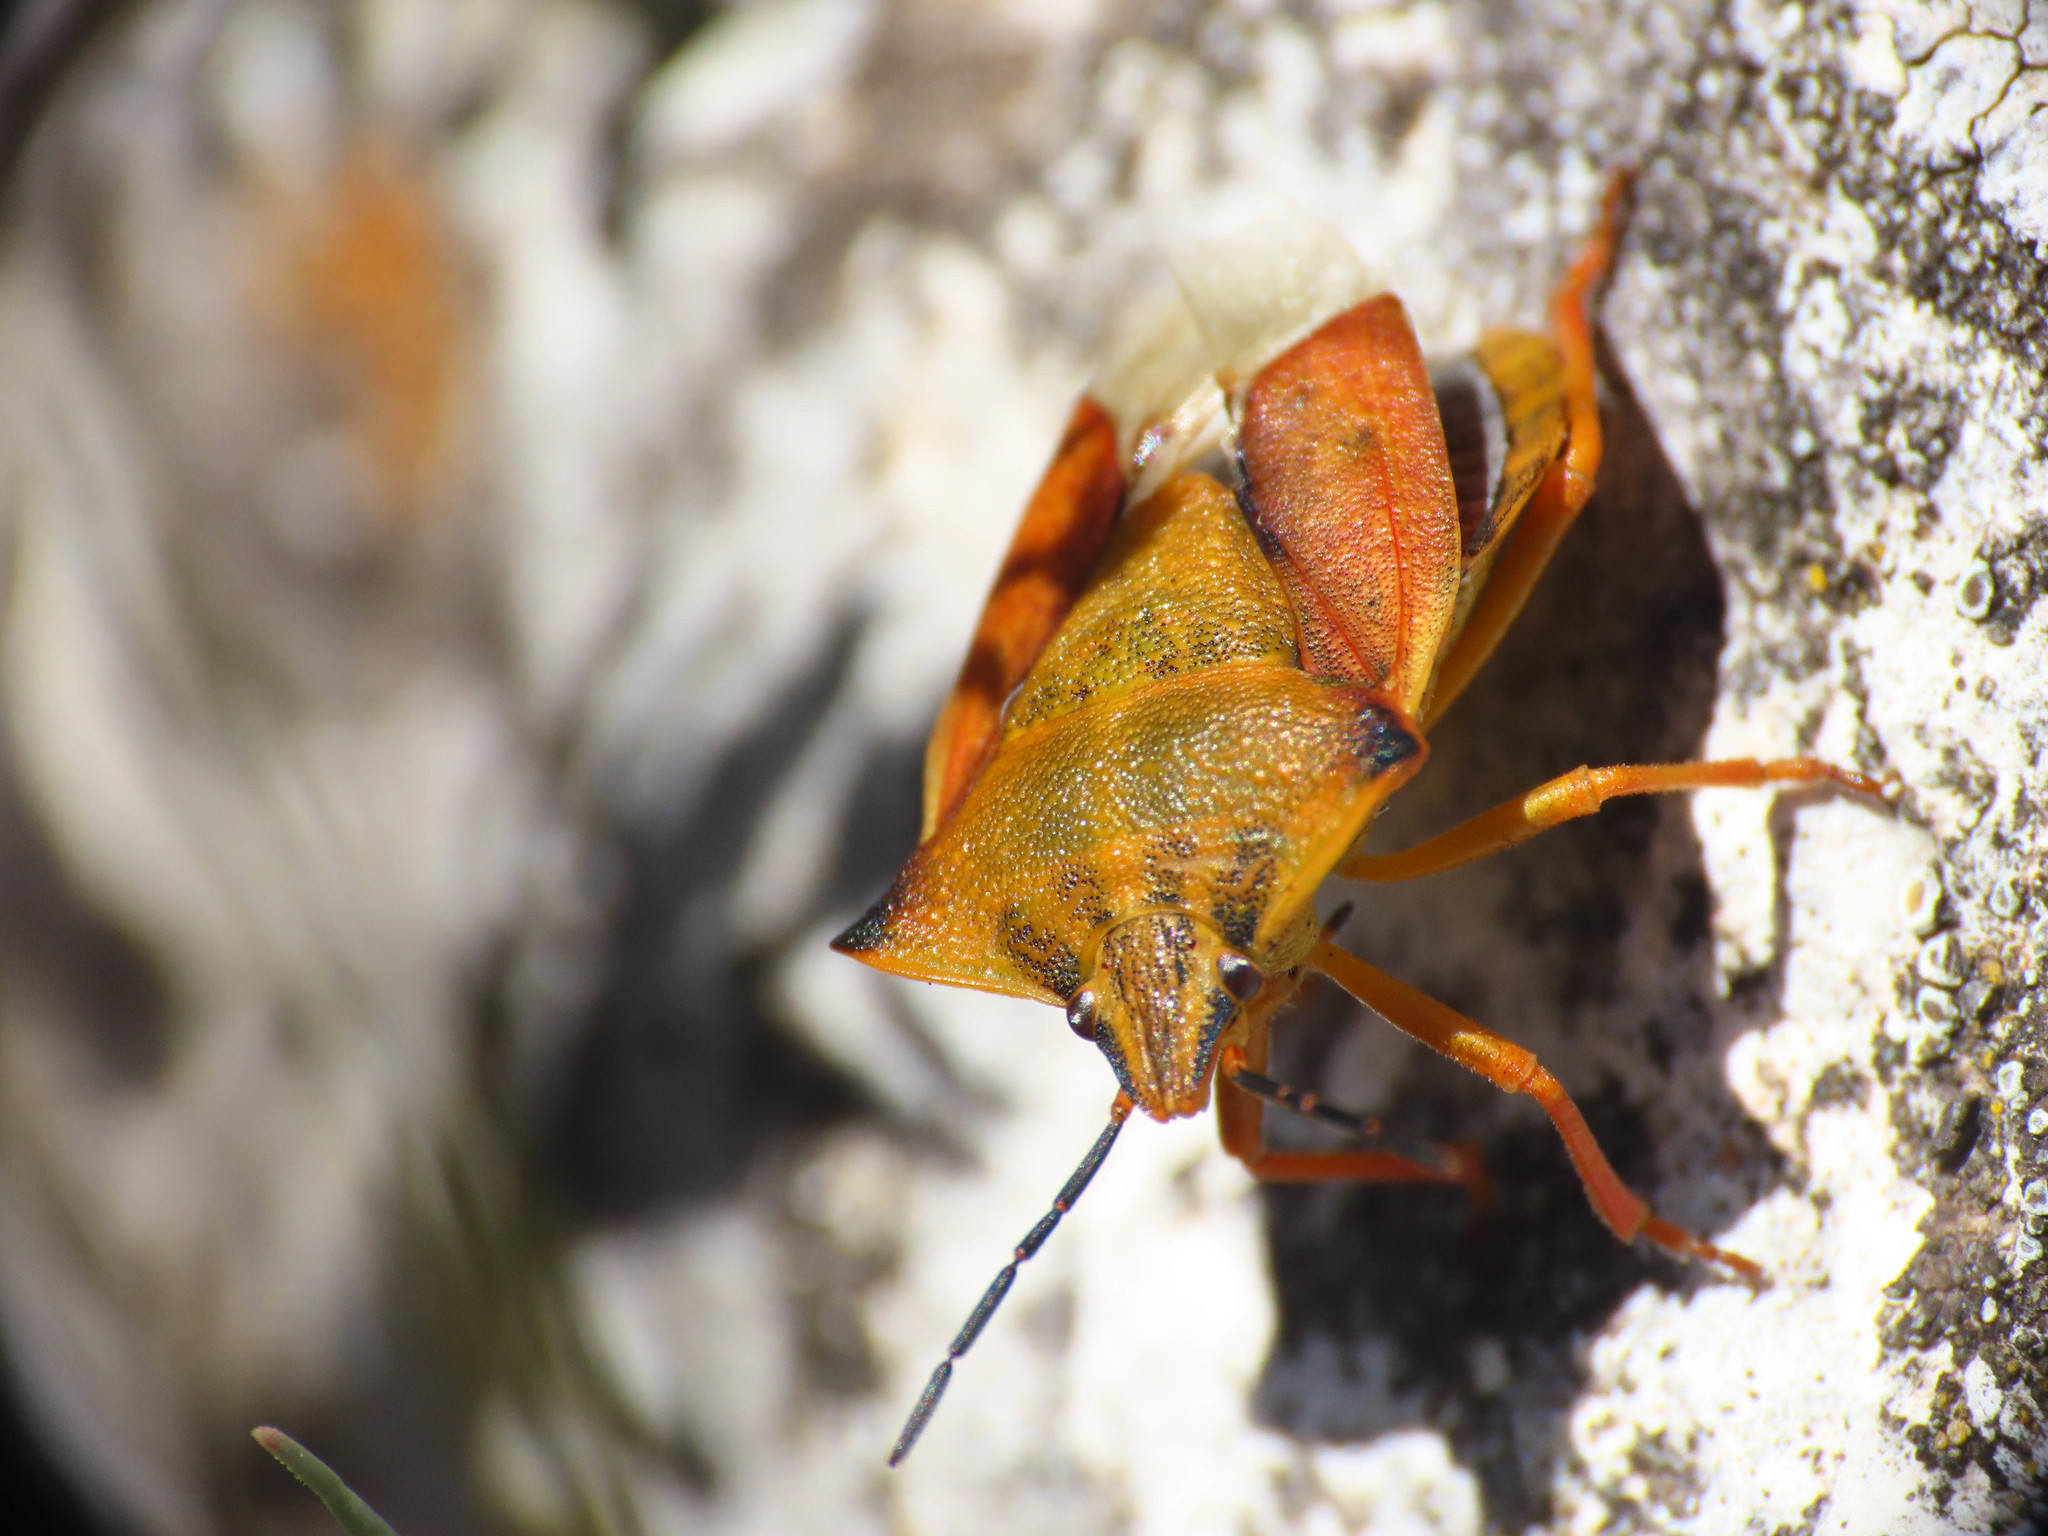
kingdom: Animalia
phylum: Arthropoda
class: Insecta
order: Hemiptera
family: Pentatomidae
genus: Carpocoris
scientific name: Carpocoris fuscispinus
